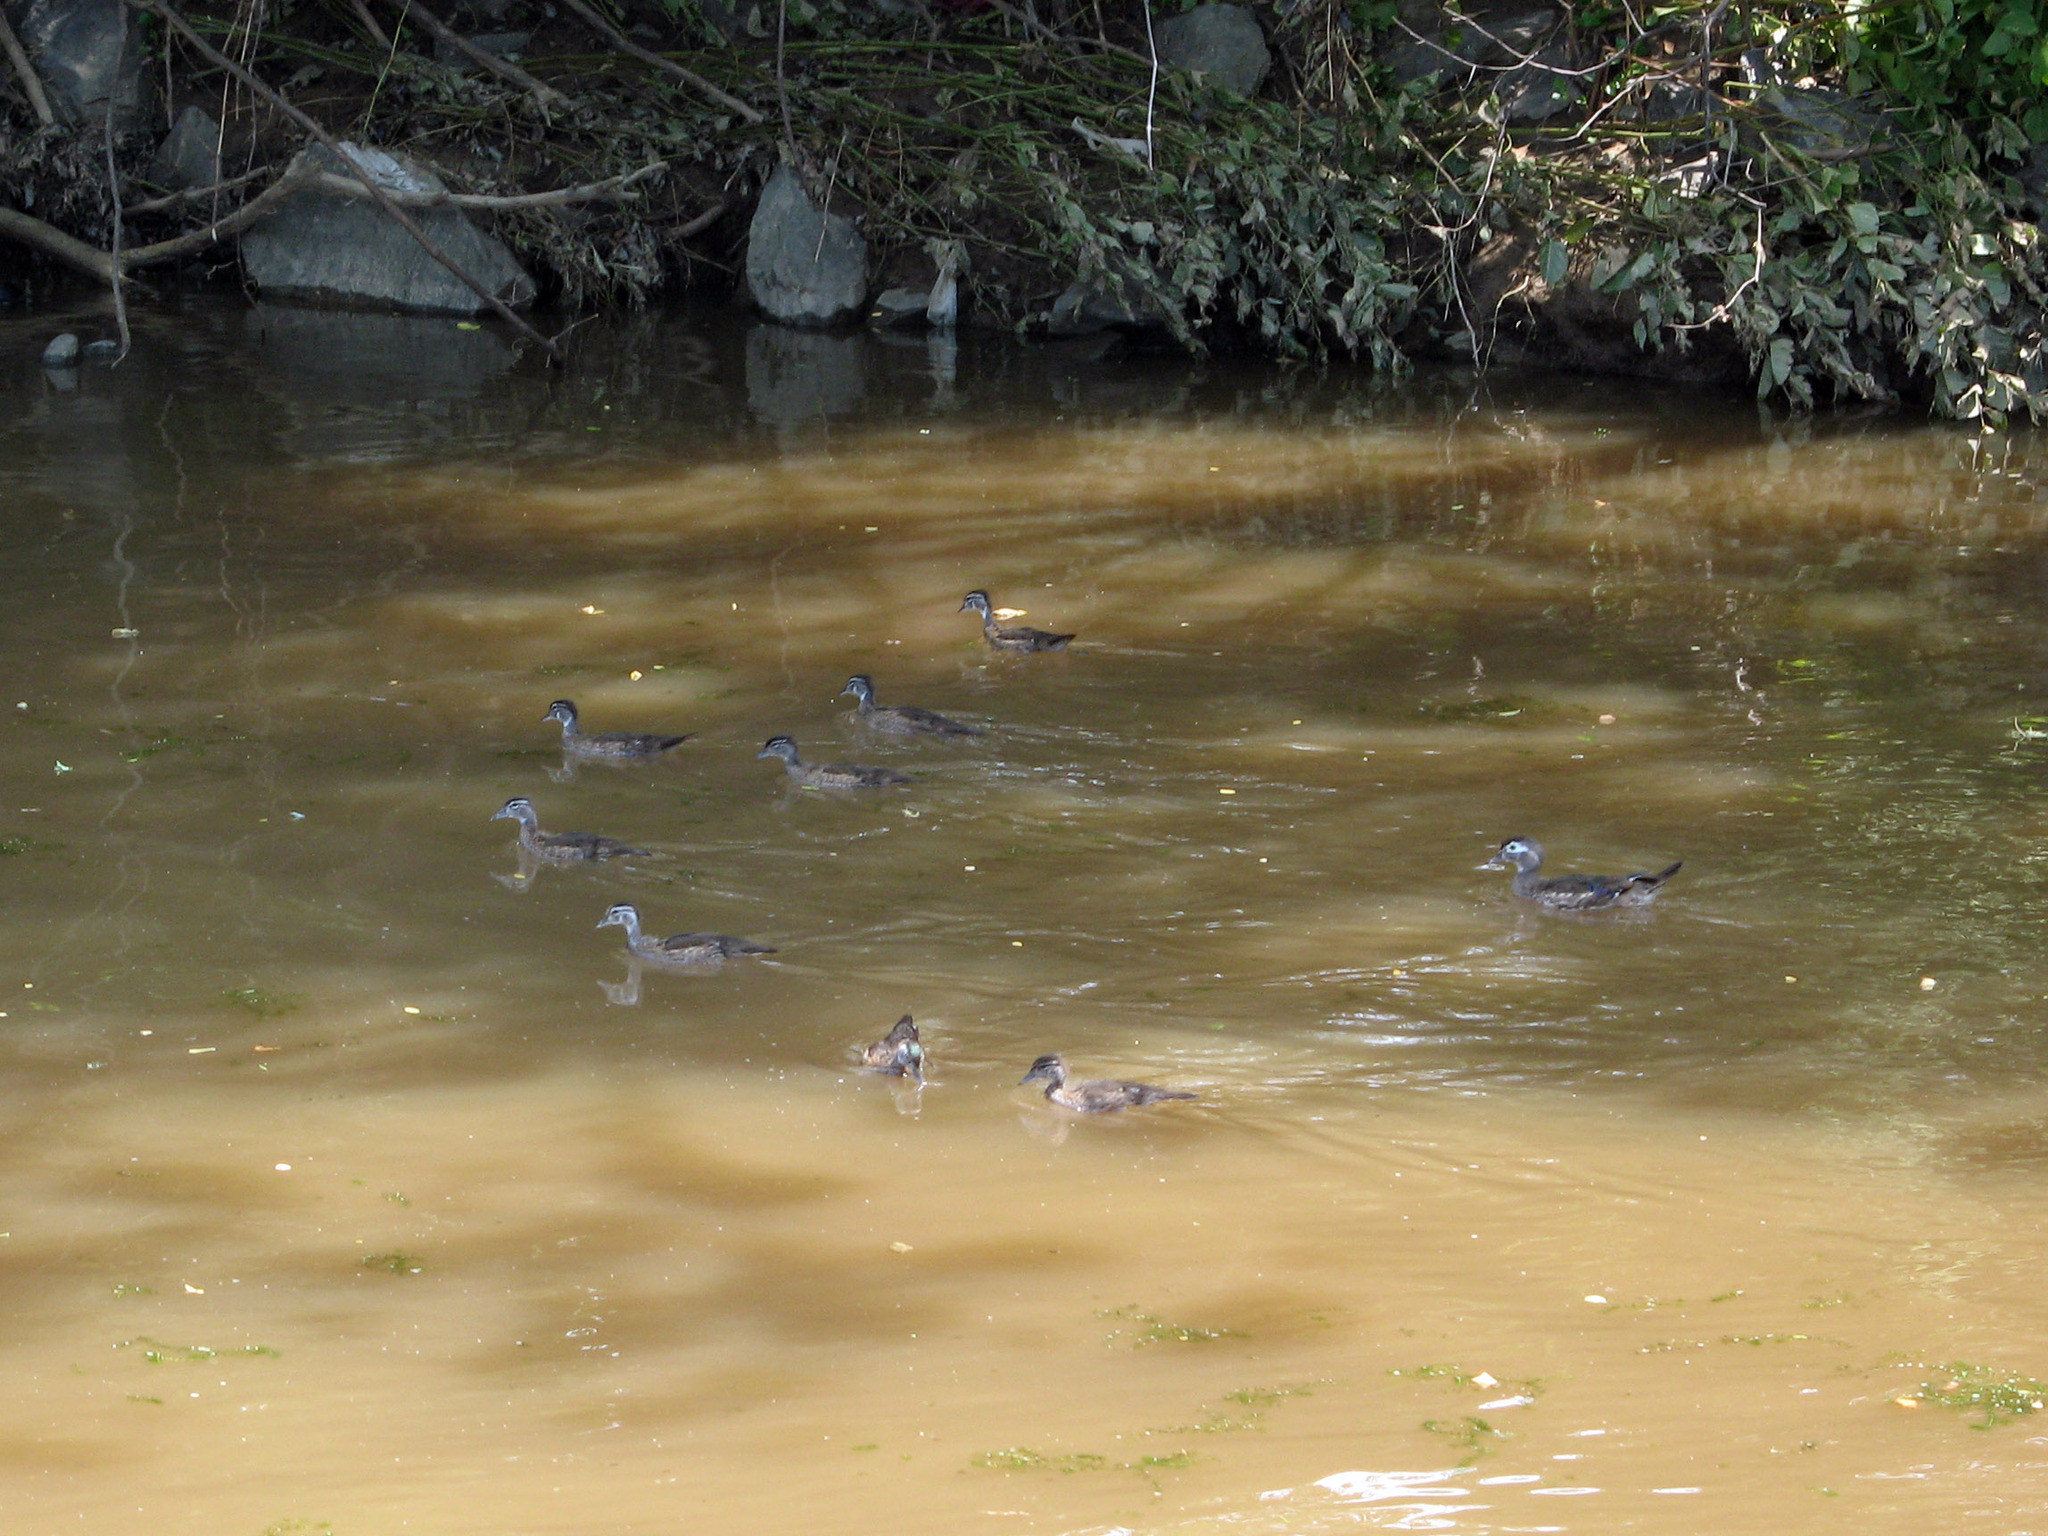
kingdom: Animalia
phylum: Chordata
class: Aves
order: Anseriformes
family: Anatidae
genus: Aix
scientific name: Aix sponsa
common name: Wood duck
